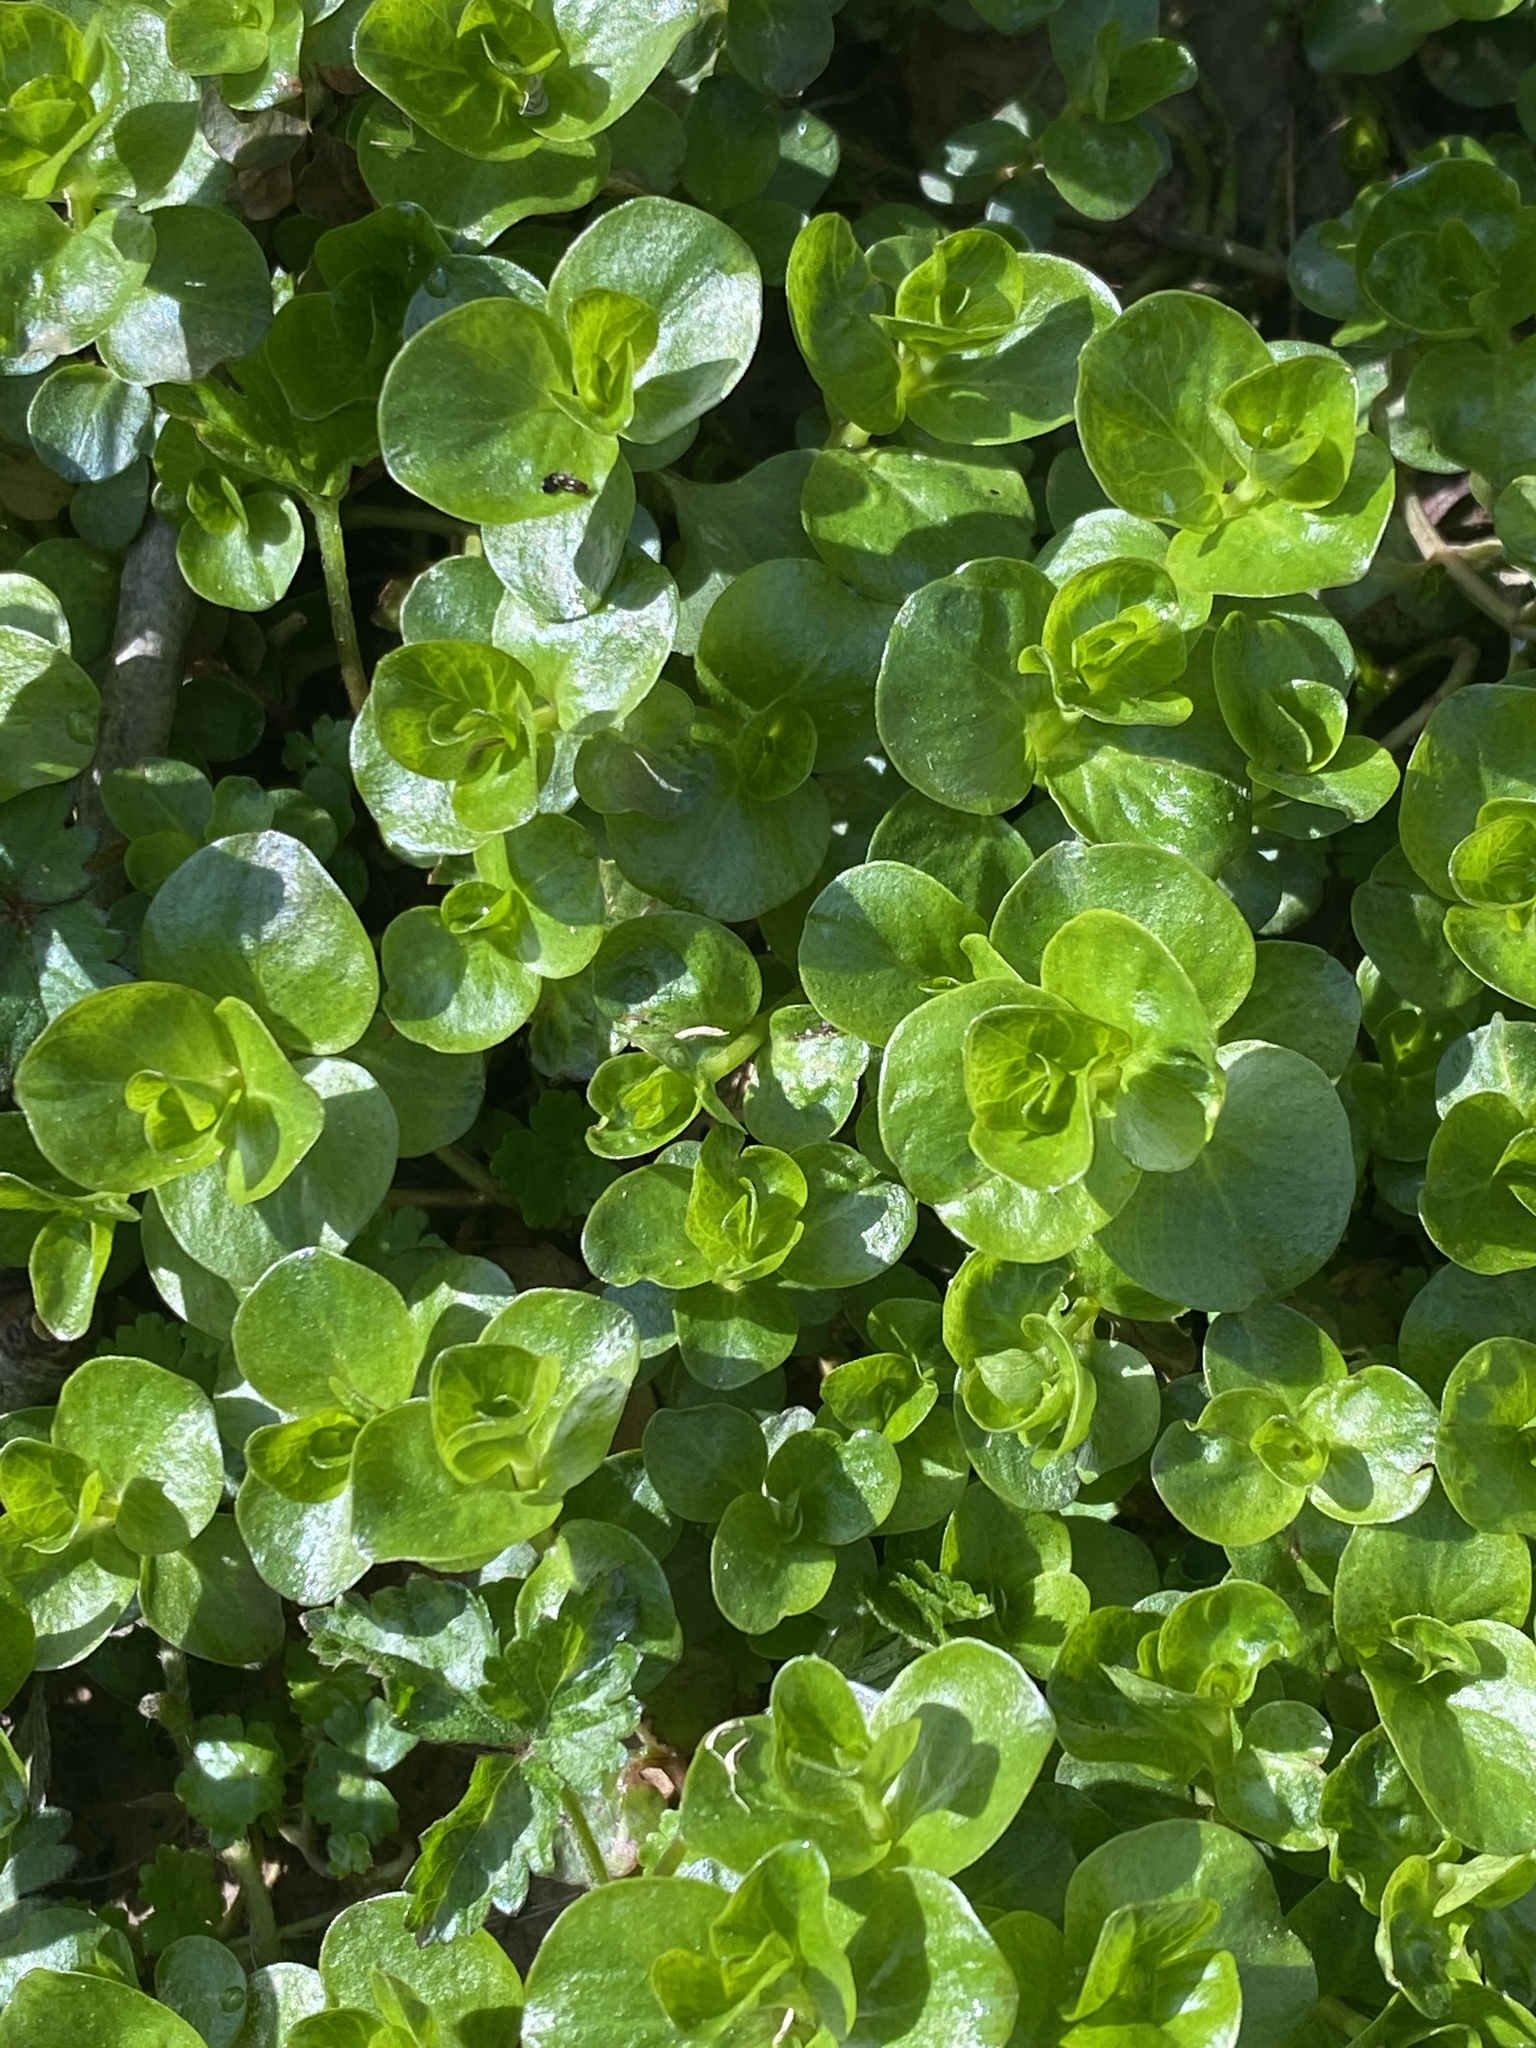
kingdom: Plantae
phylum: Tracheophyta
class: Magnoliopsida
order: Ericales
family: Primulaceae
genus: Lysimachia
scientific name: Lysimachia nummularia
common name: Moneywort
